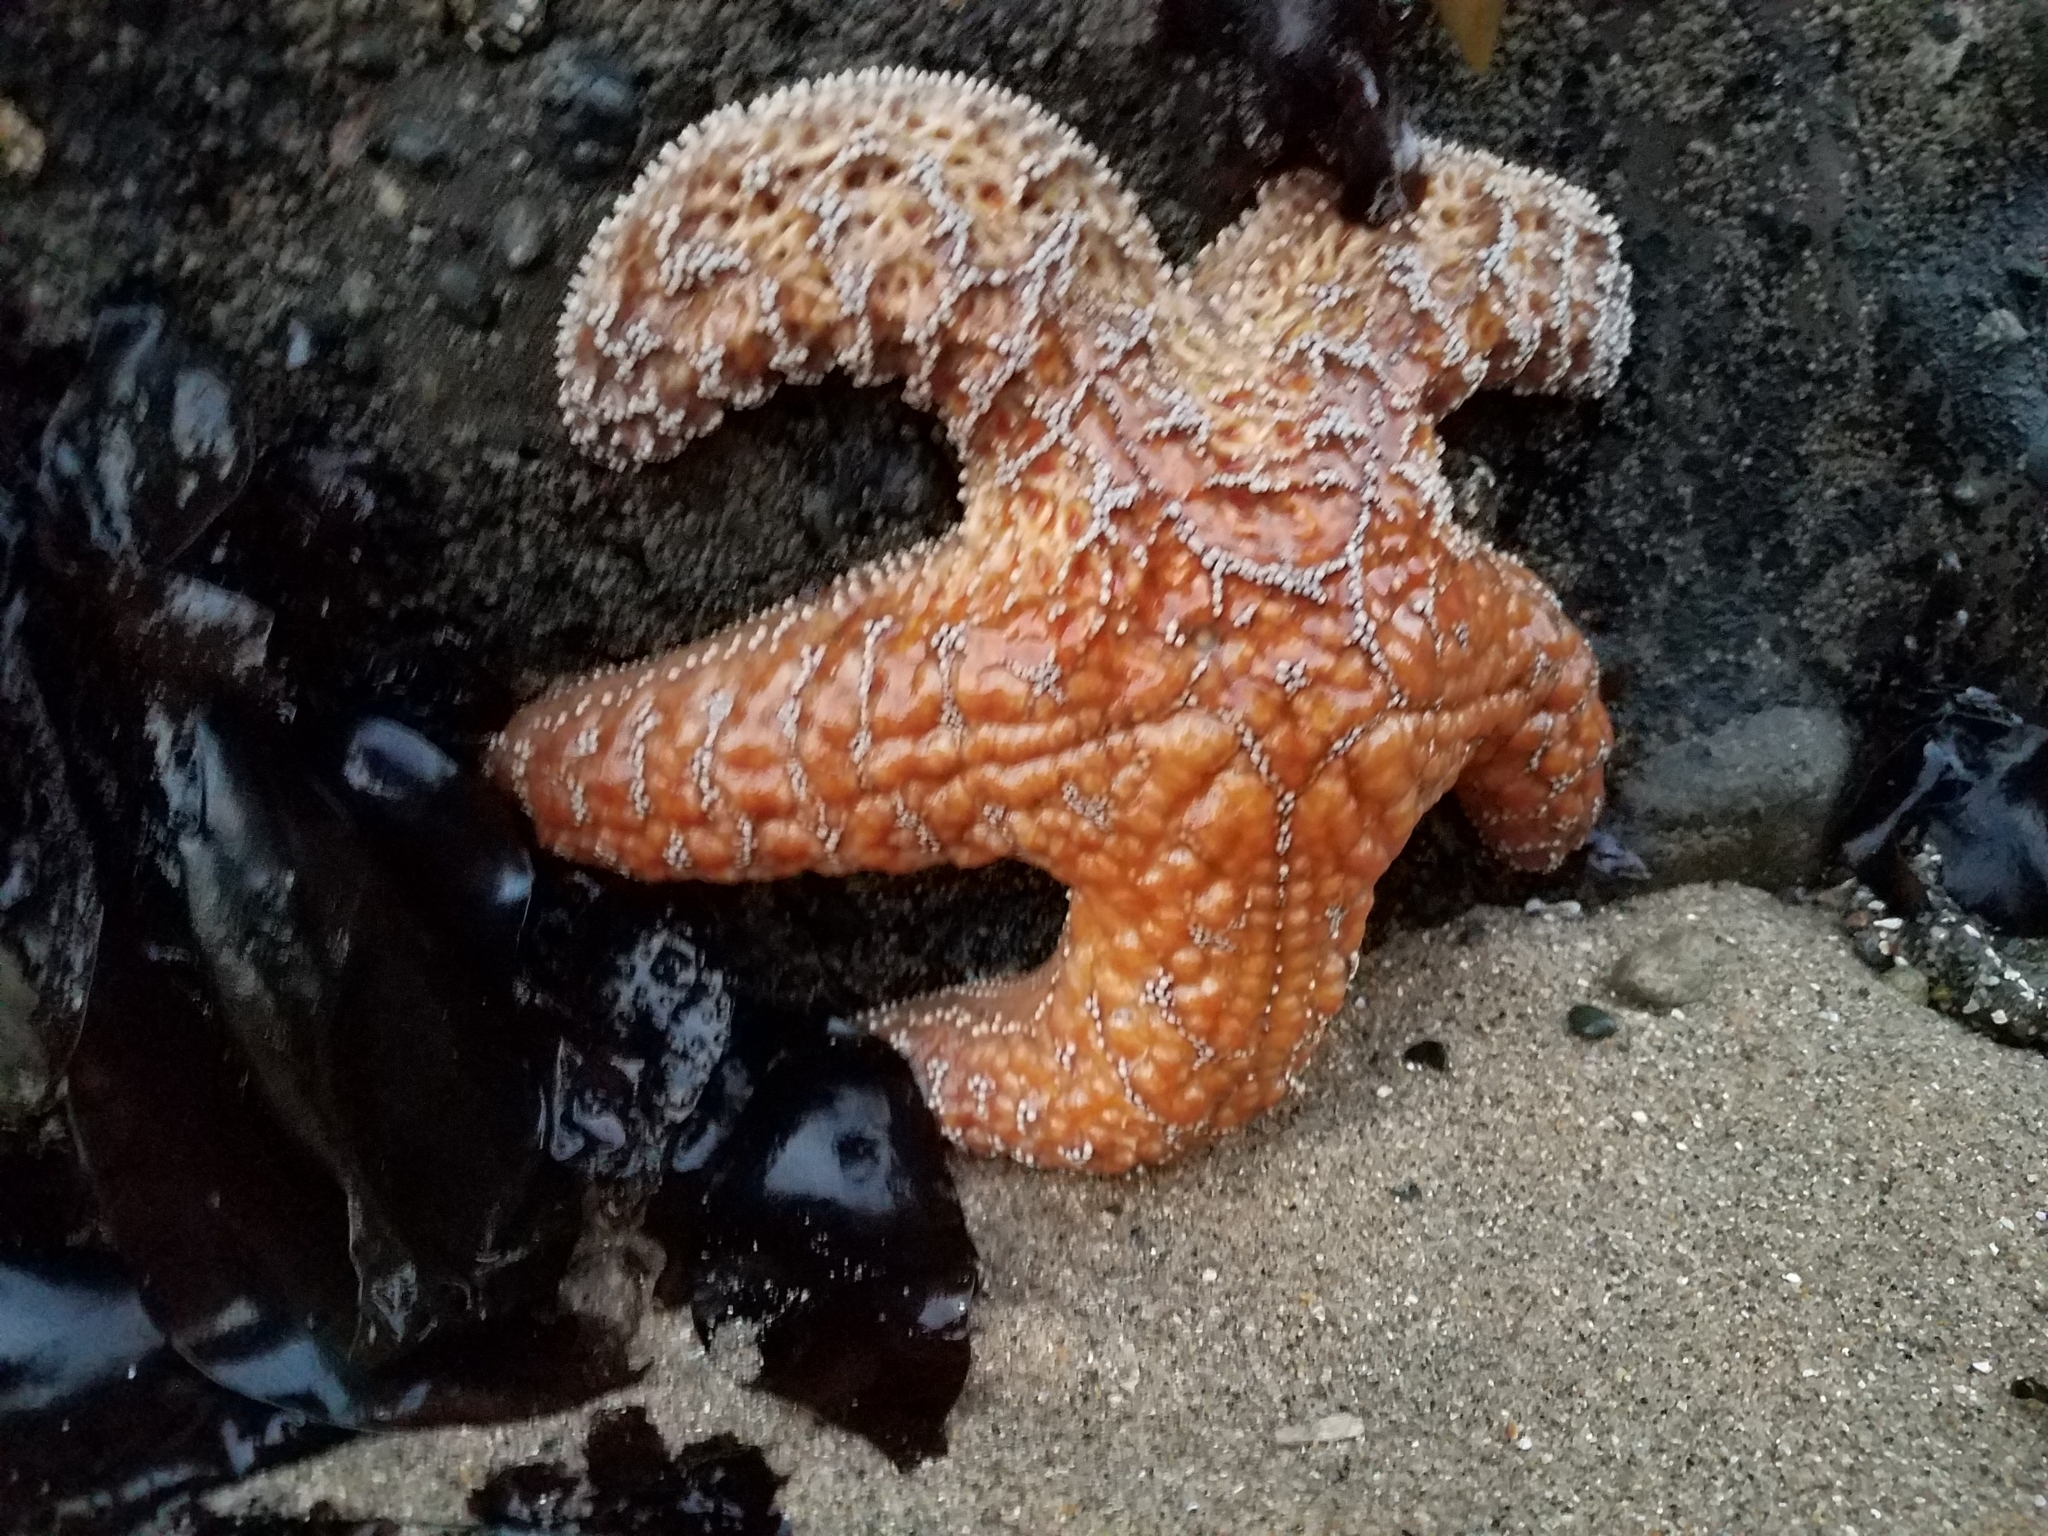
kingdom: Animalia
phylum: Echinodermata
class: Asteroidea
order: Forcipulatida
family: Asteriidae
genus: Pisaster
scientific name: Pisaster ochraceus
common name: Ochre stars
